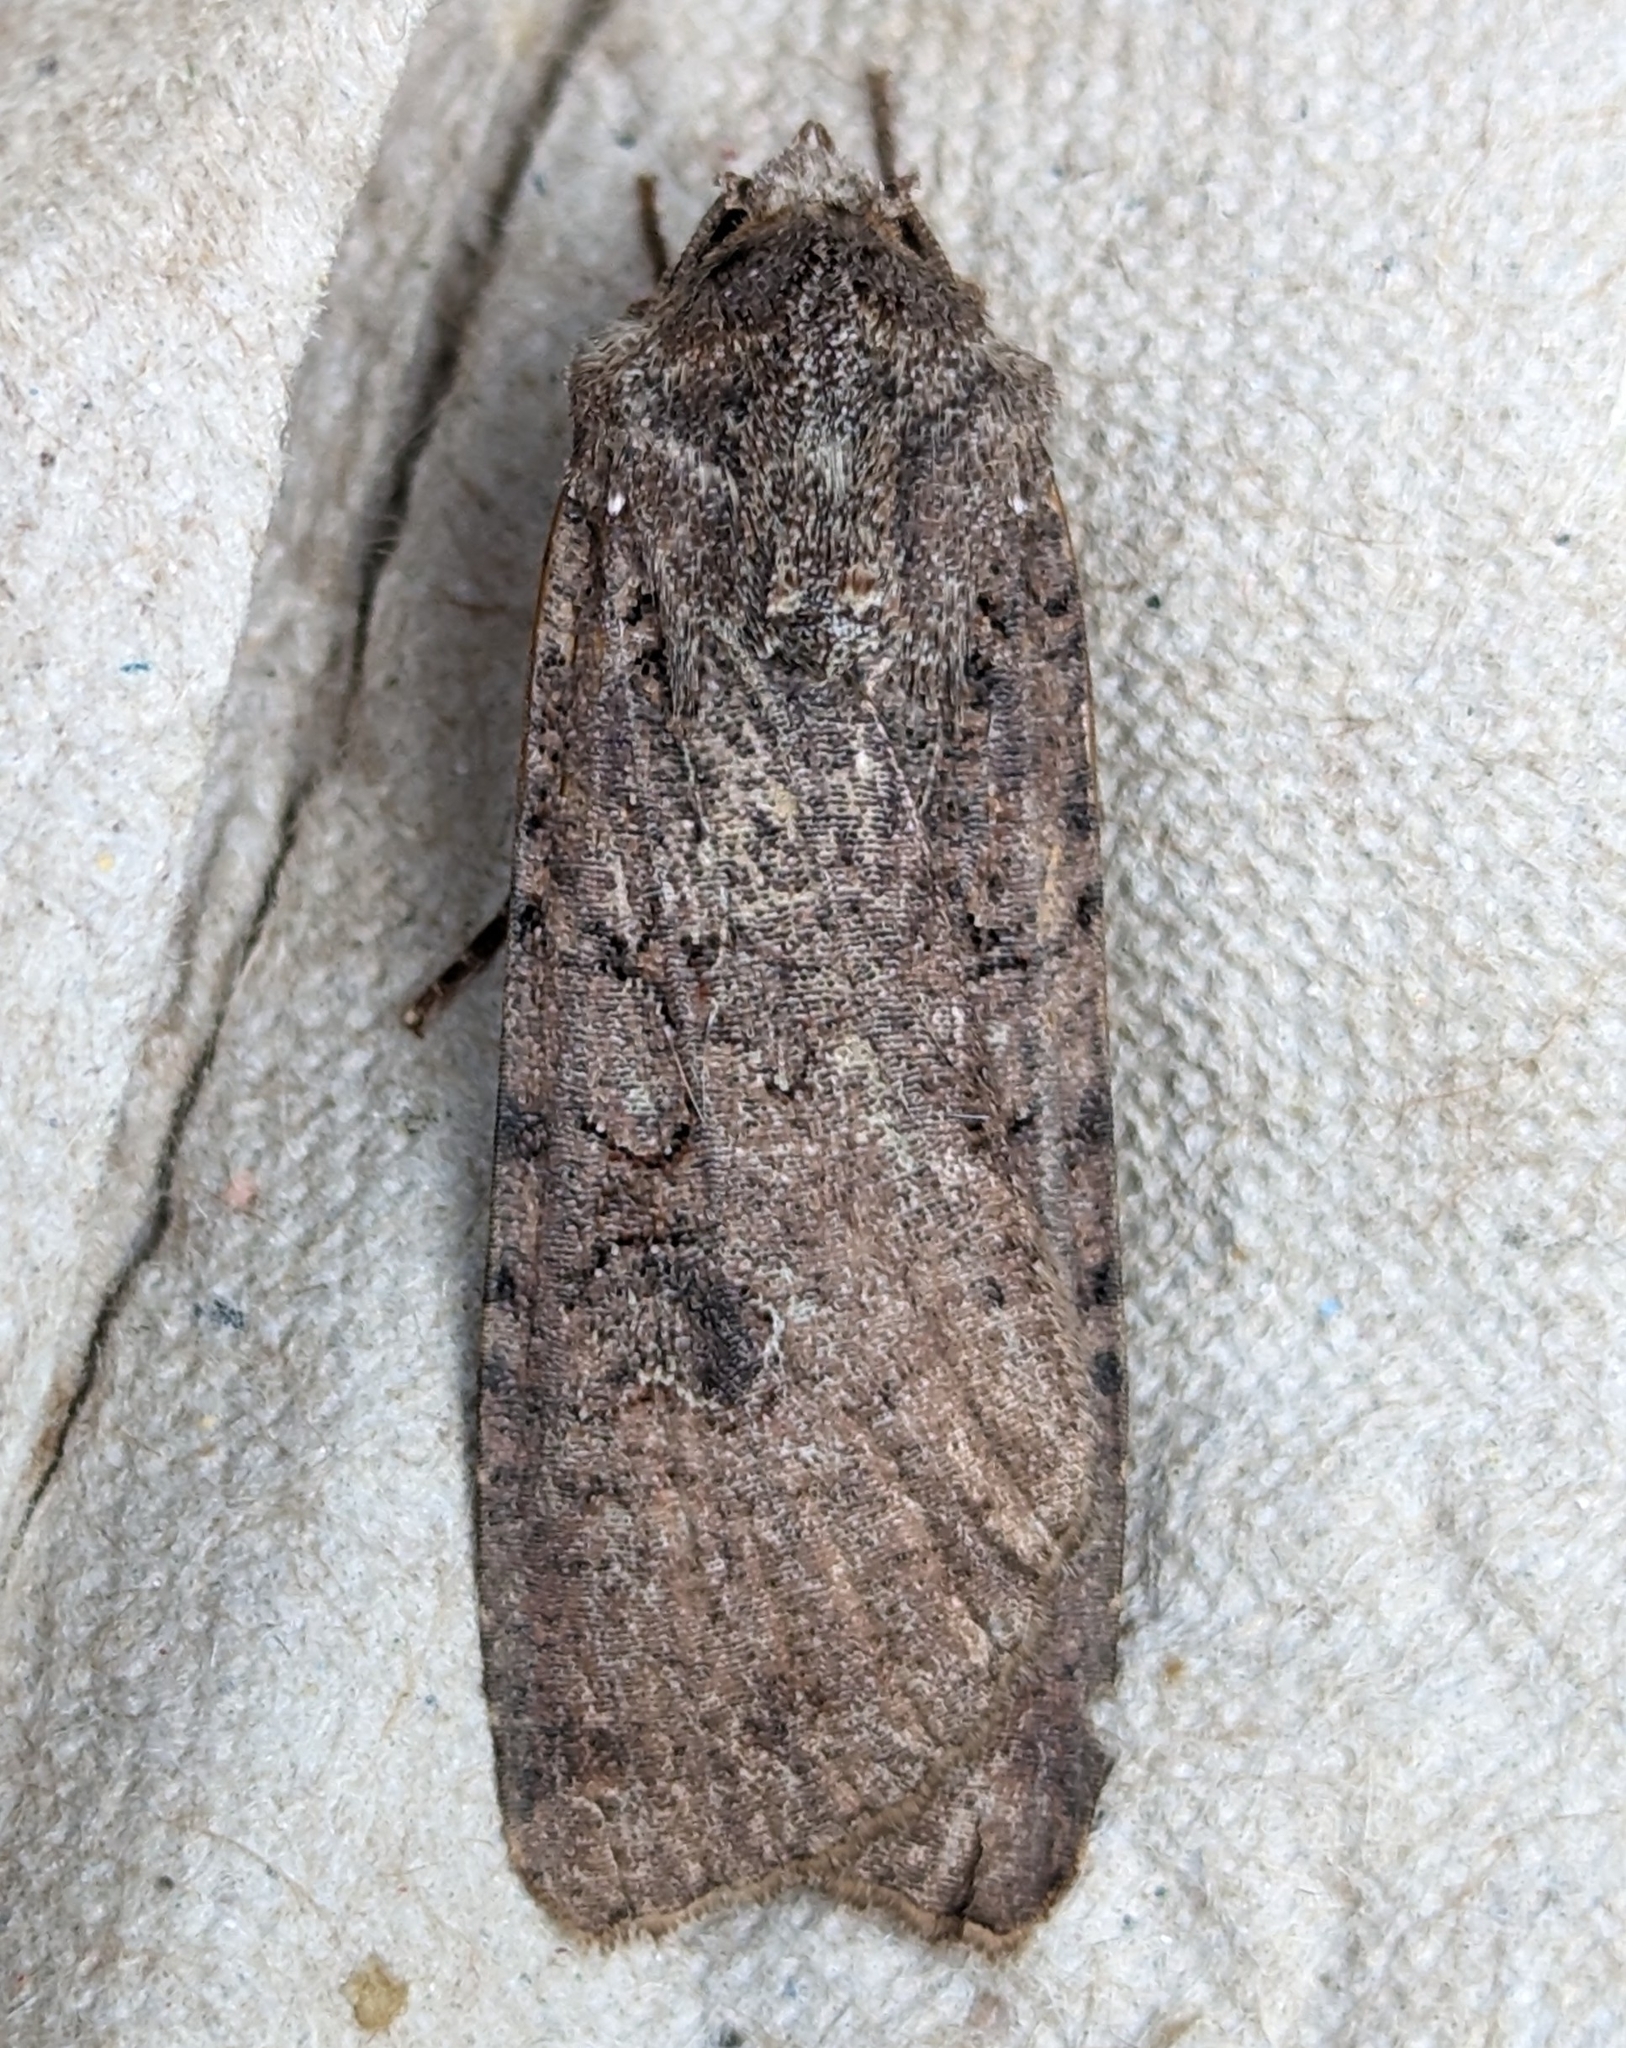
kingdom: Animalia
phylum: Arthropoda
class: Insecta
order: Lepidoptera
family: Noctuidae
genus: Peridroma
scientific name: Peridroma saucia
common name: Pearly underwing
